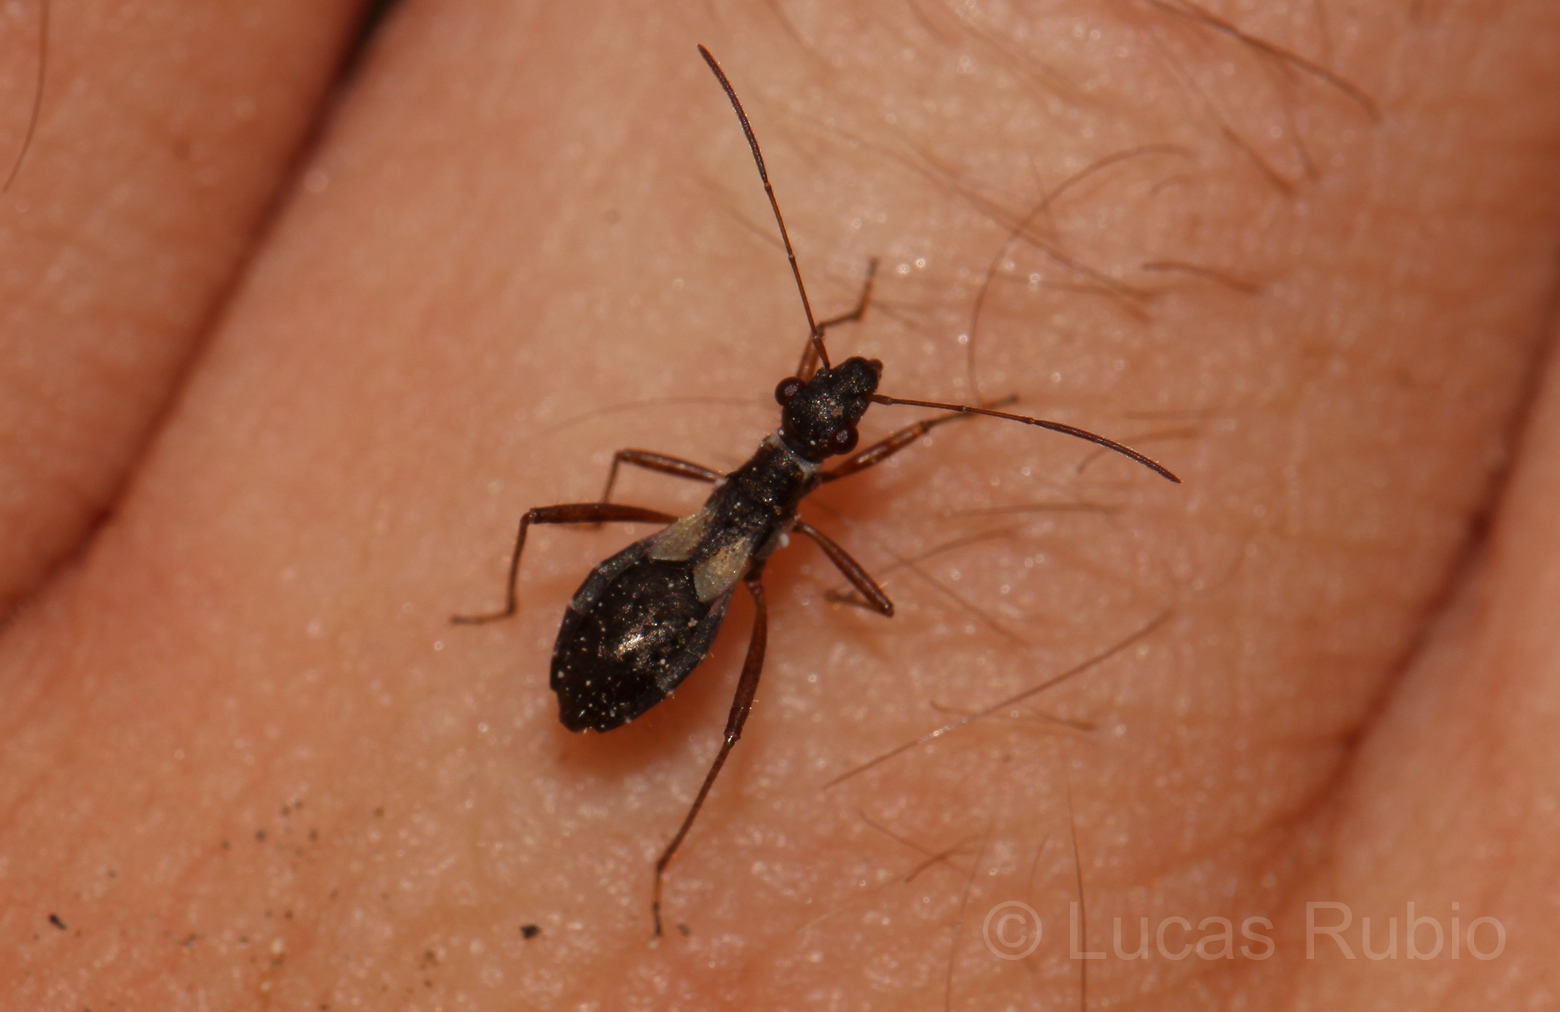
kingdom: Animalia
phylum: Arthropoda
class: Insecta
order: Hemiptera
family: Alydidae
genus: Cydamus
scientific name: Cydamus celeripes
